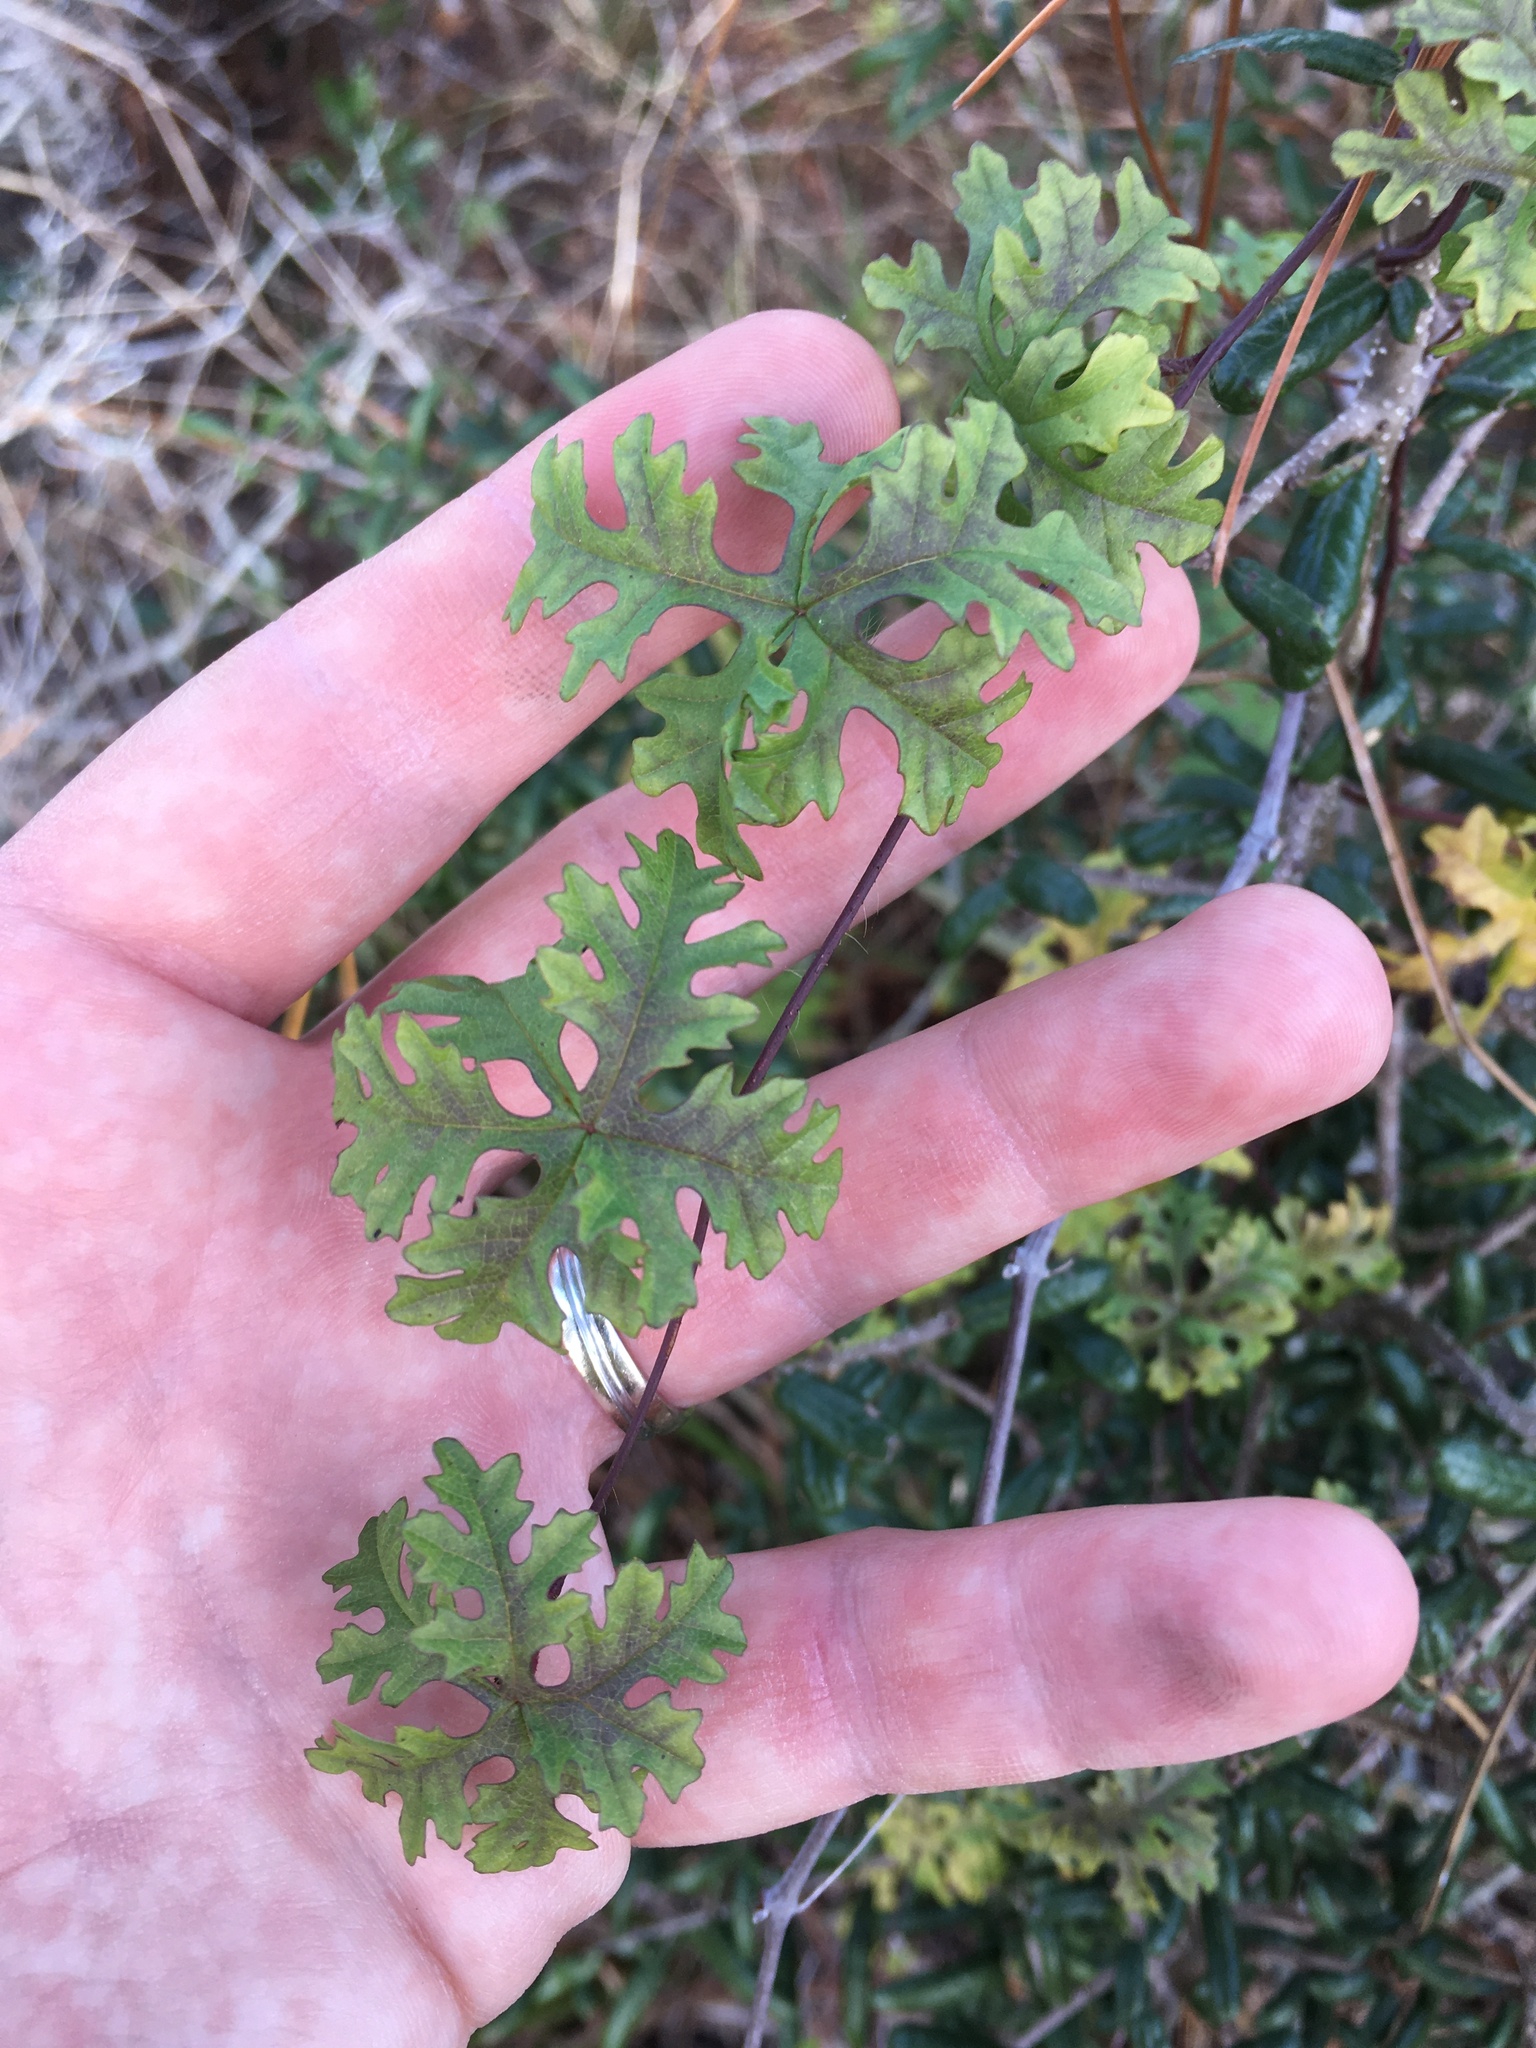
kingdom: Plantae
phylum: Tracheophyta
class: Magnoliopsida
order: Solanales
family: Convolvulaceae
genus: Distimake
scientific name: Distimake dissectus
